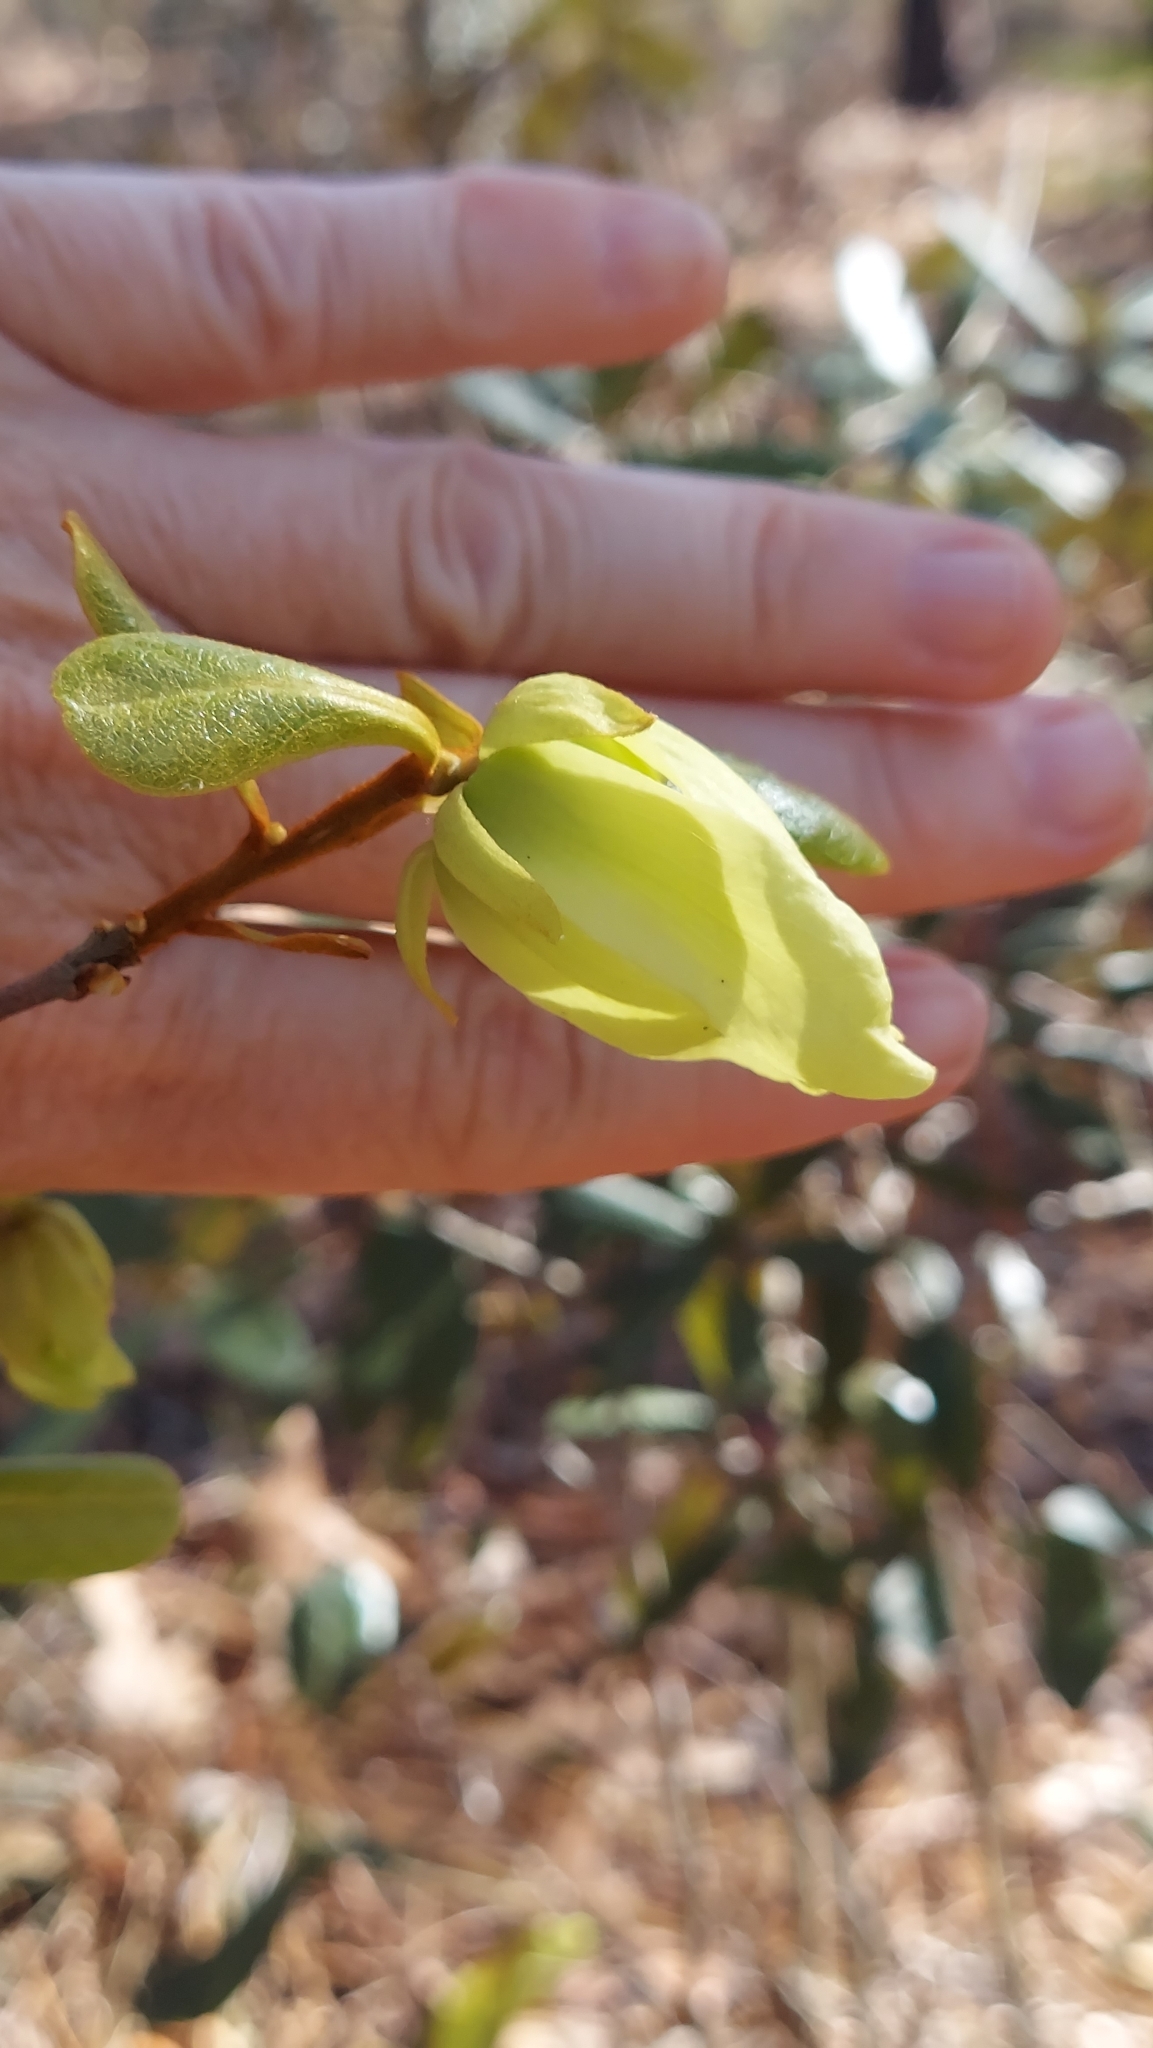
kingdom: Plantae
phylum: Tracheophyta
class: Magnoliopsida
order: Magnoliales
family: Annonaceae
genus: Asimina
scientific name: Asimina obovata
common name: Flag pawpaw
